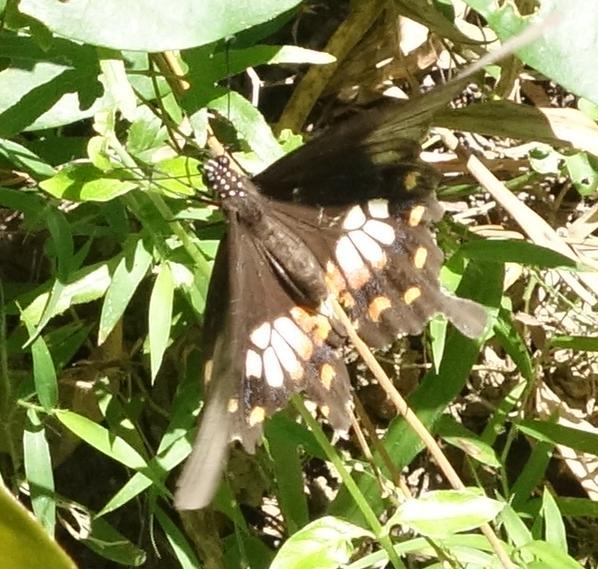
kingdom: Animalia
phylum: Arthropoda
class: Insecta
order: Lepidoptera
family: Papilionidae
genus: Papilio
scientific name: Papilio polytes
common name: Common mormon
